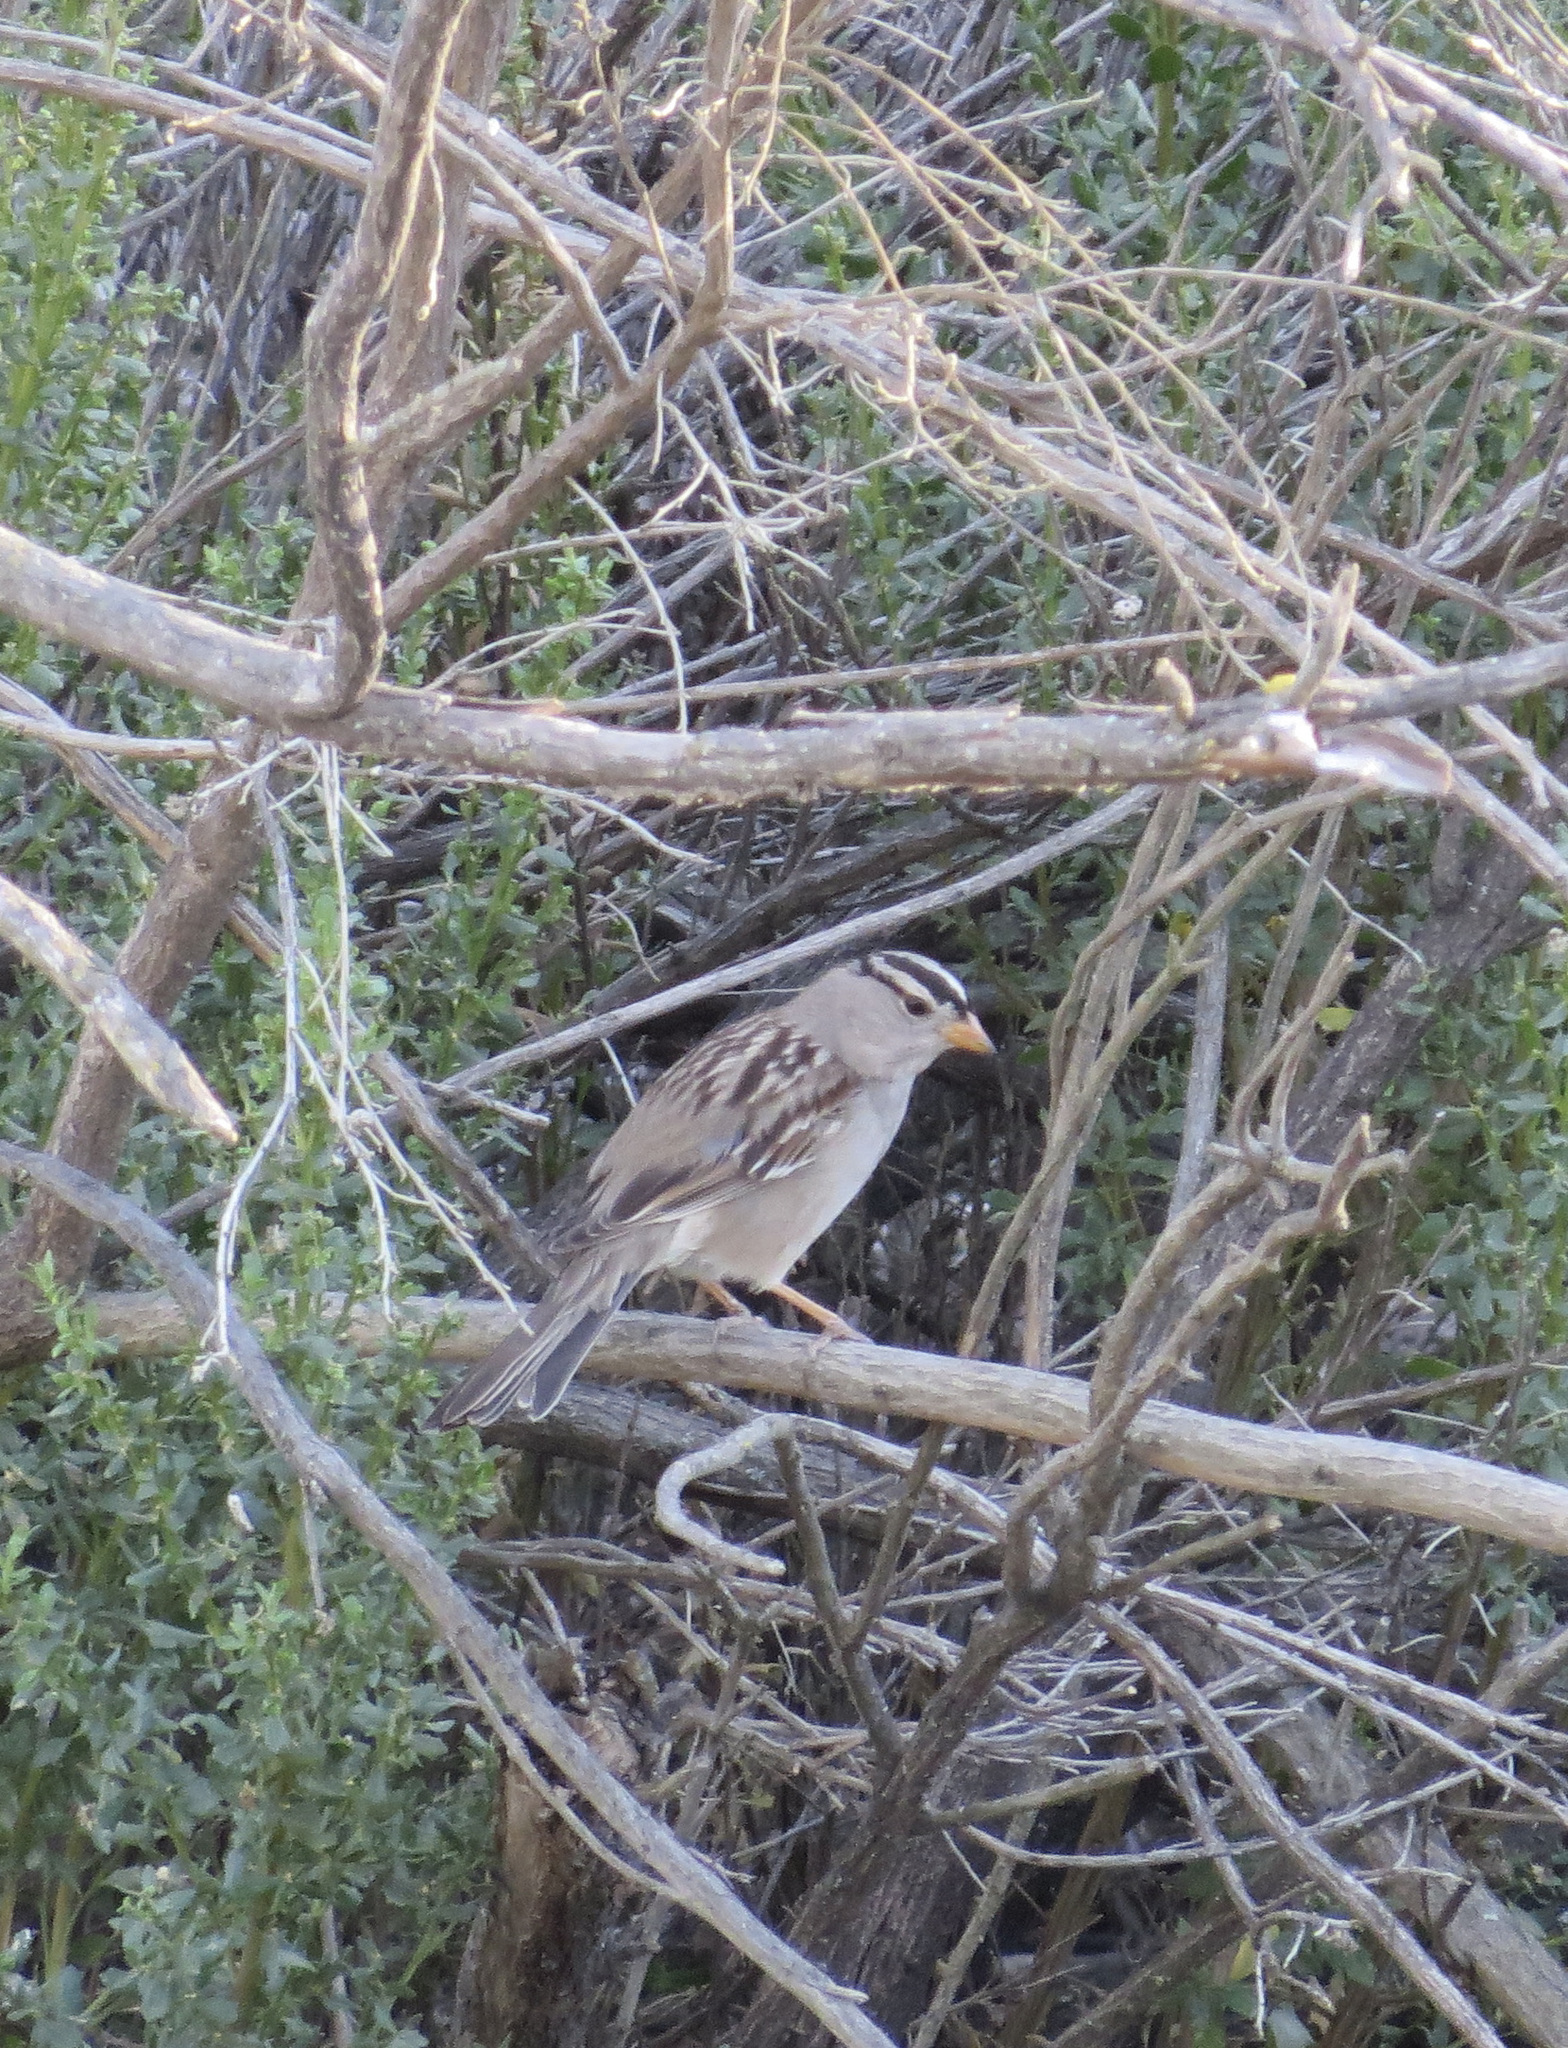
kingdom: Animalia
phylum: Chordata
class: Aves
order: Passeriformes
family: Passerellidae
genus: Zonotrichia
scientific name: Zonotrichia leucophrys
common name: White-crowned sparrow
